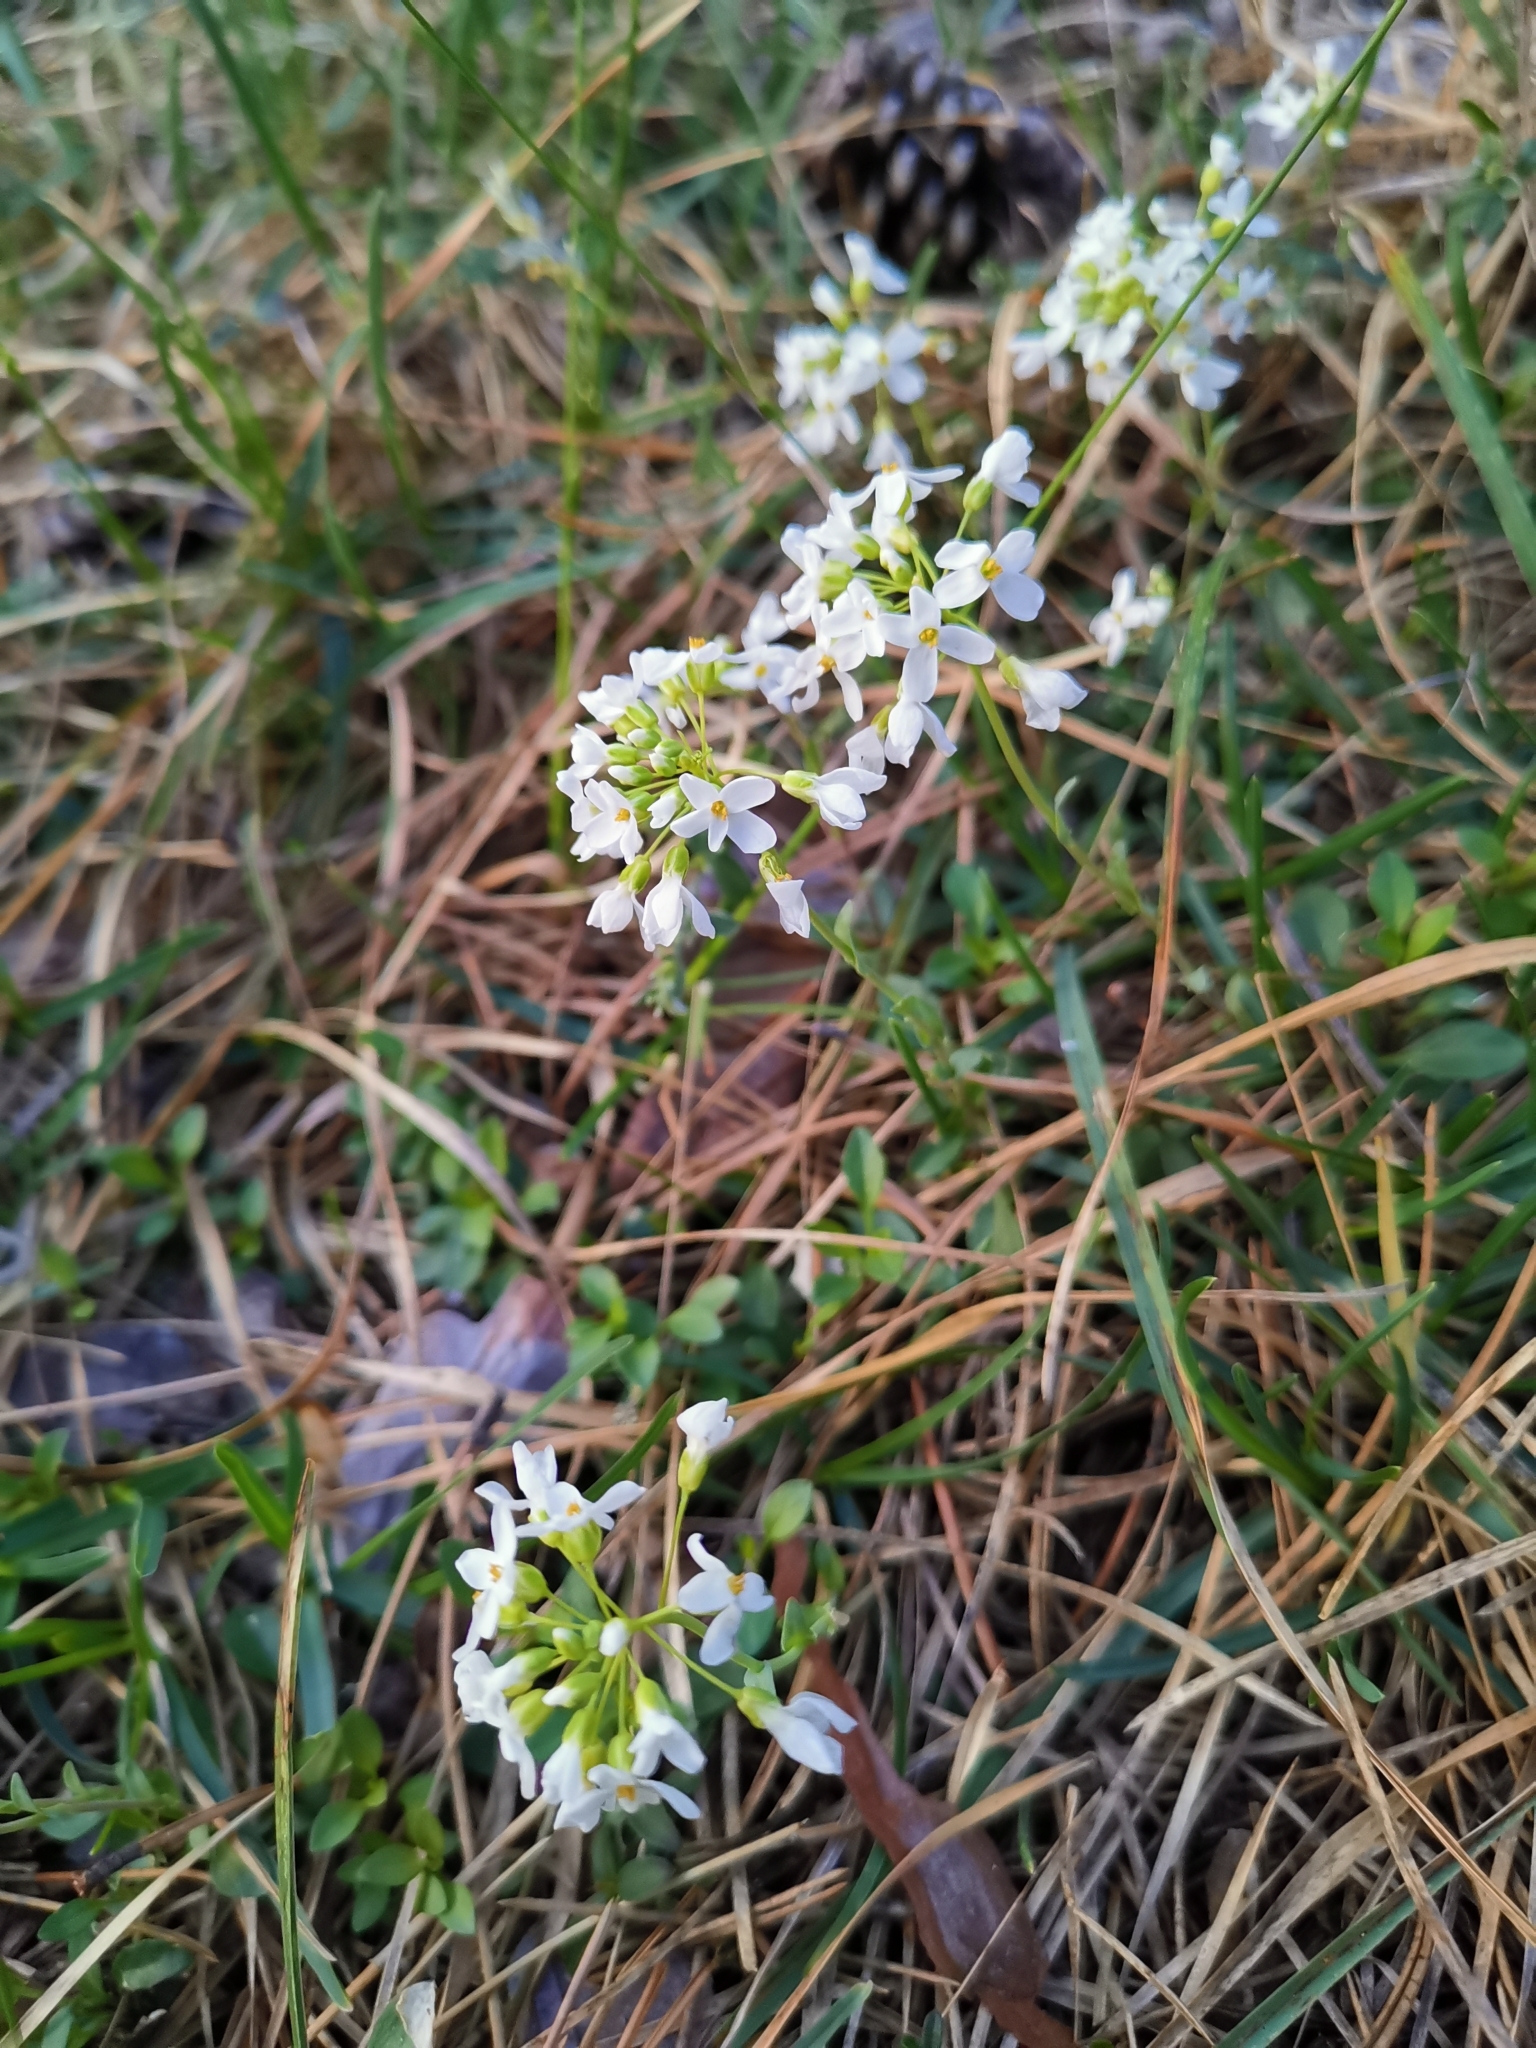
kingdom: Plantae
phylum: Tracheophyta
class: Magnoliopsida
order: Brassicales
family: Brassicaceae
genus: Noccaea
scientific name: Noccaea montana
